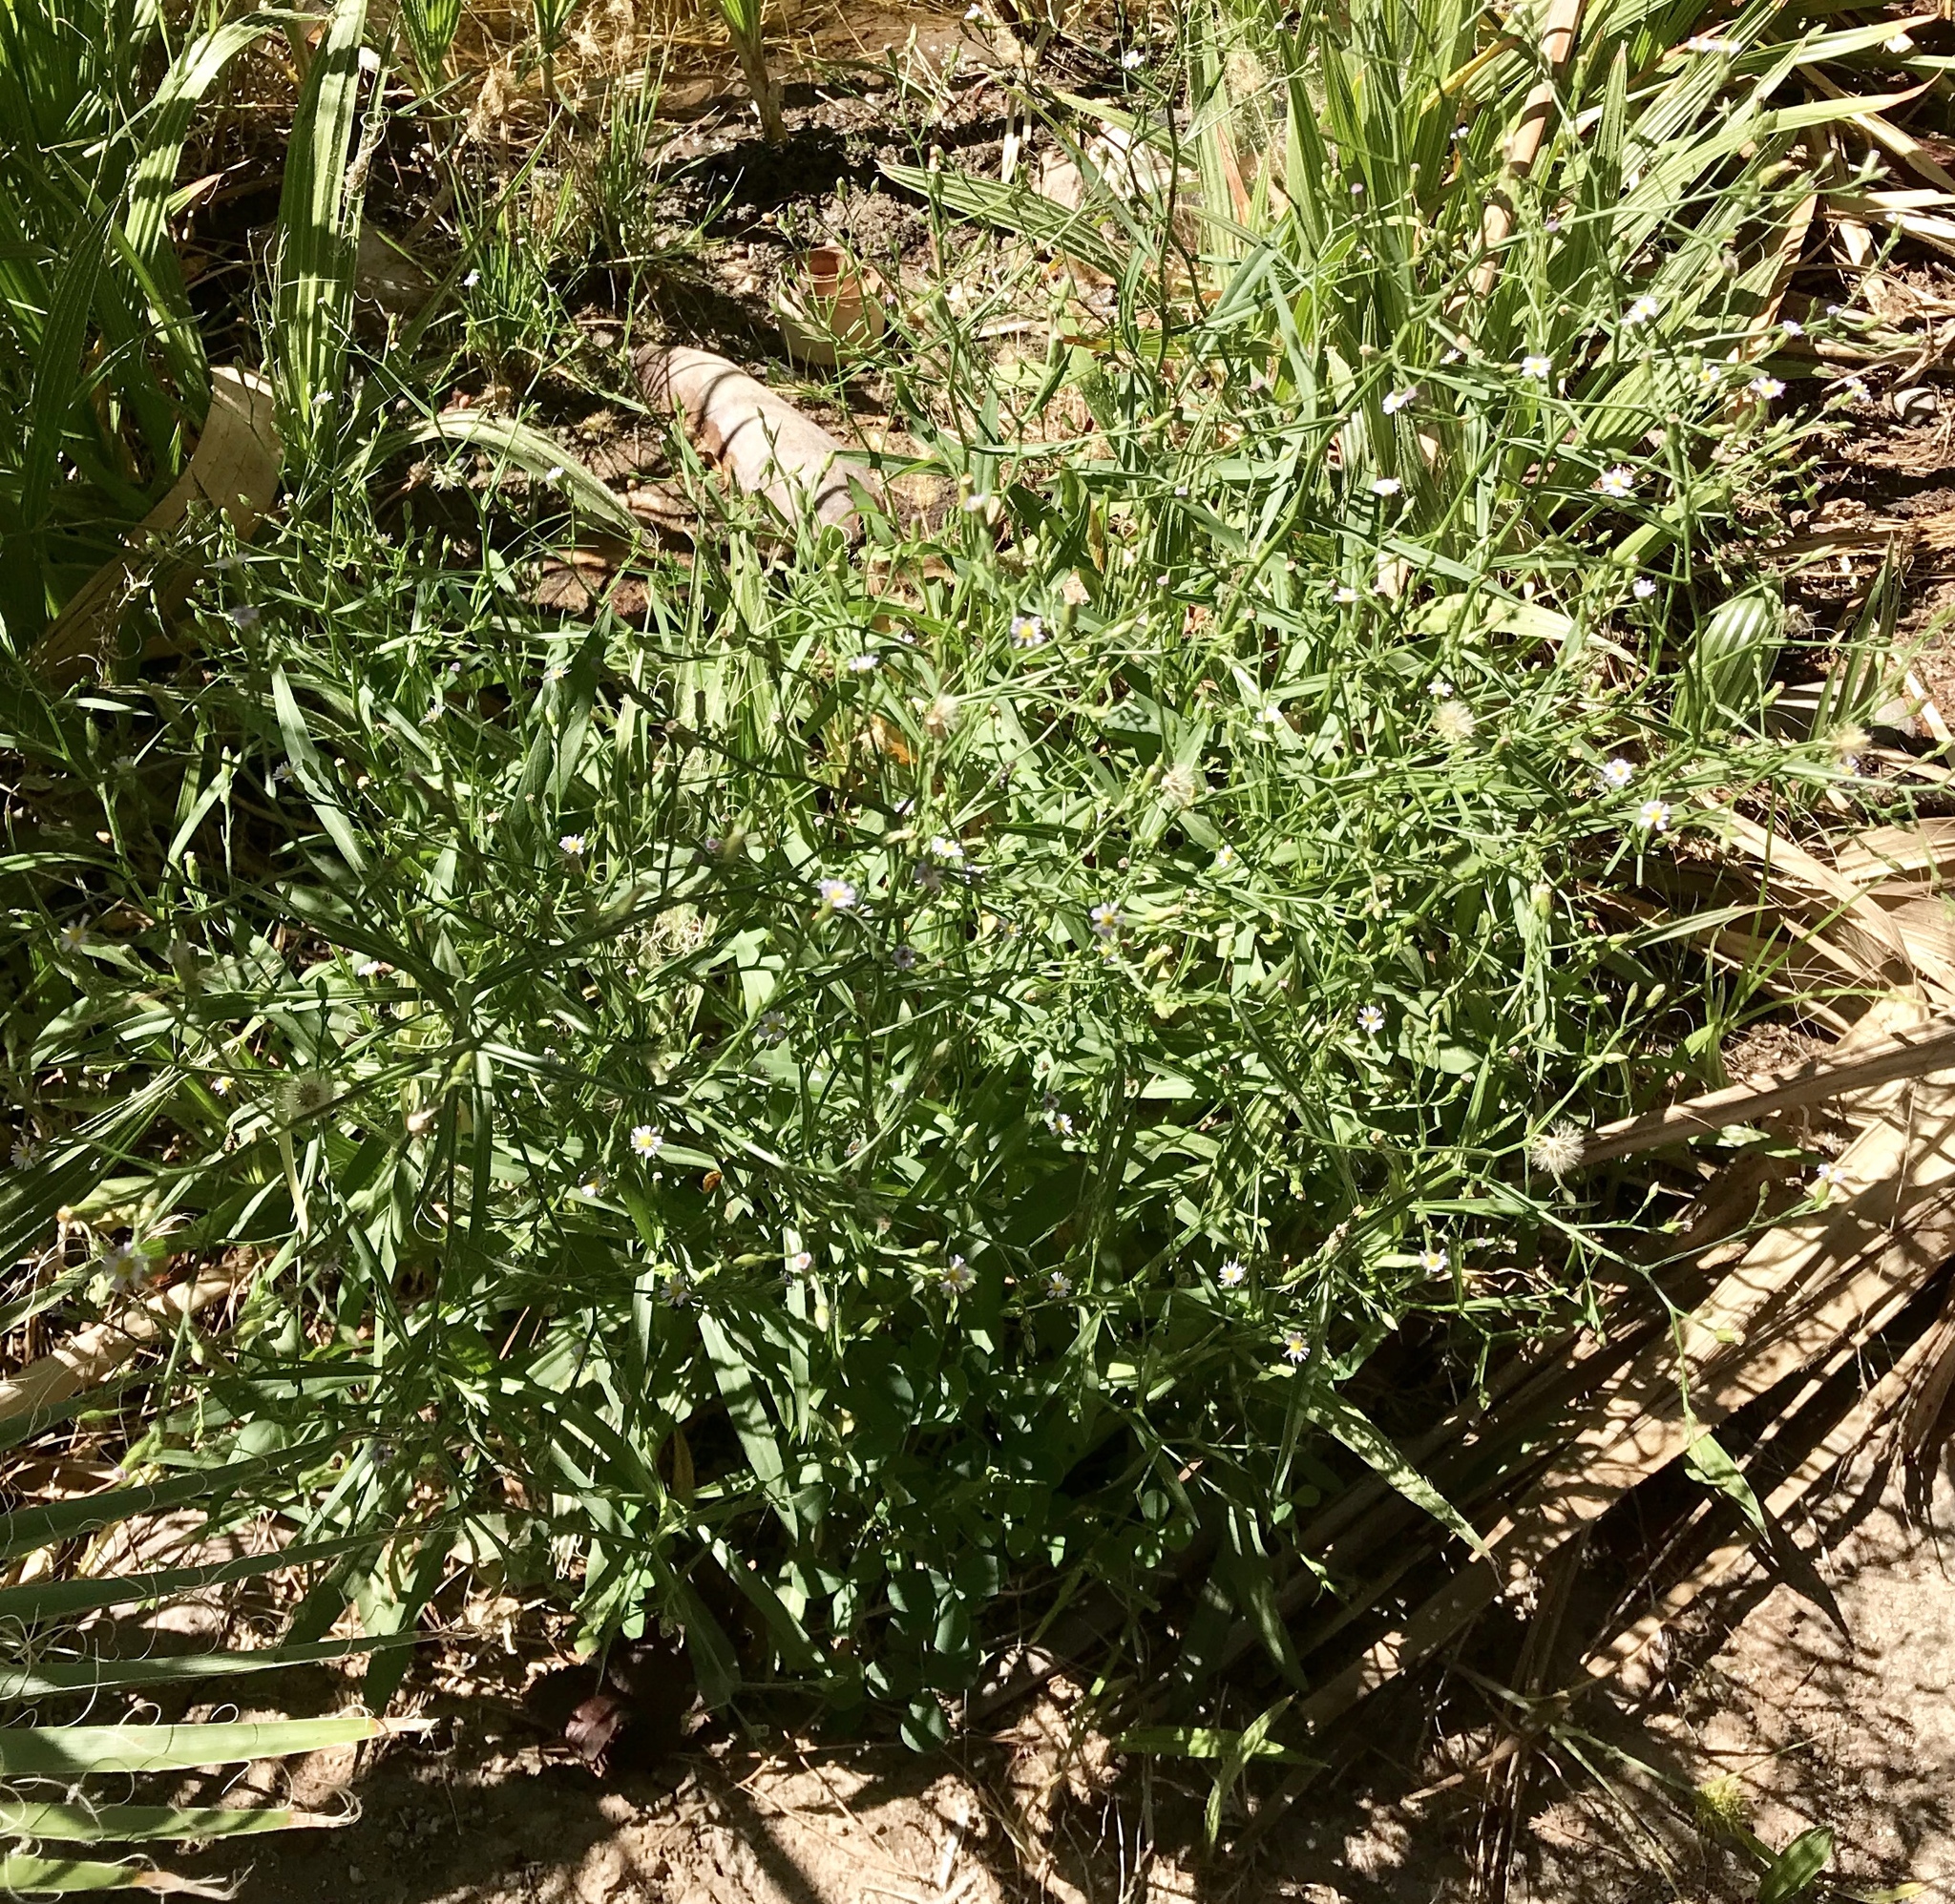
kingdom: Plantae
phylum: Tracheophyta
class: Magnoliopsida
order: Asterales
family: Asteraceae
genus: Symphyotrichum
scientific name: Symphyotrichum subulatum
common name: Annual saltmarsh aster
